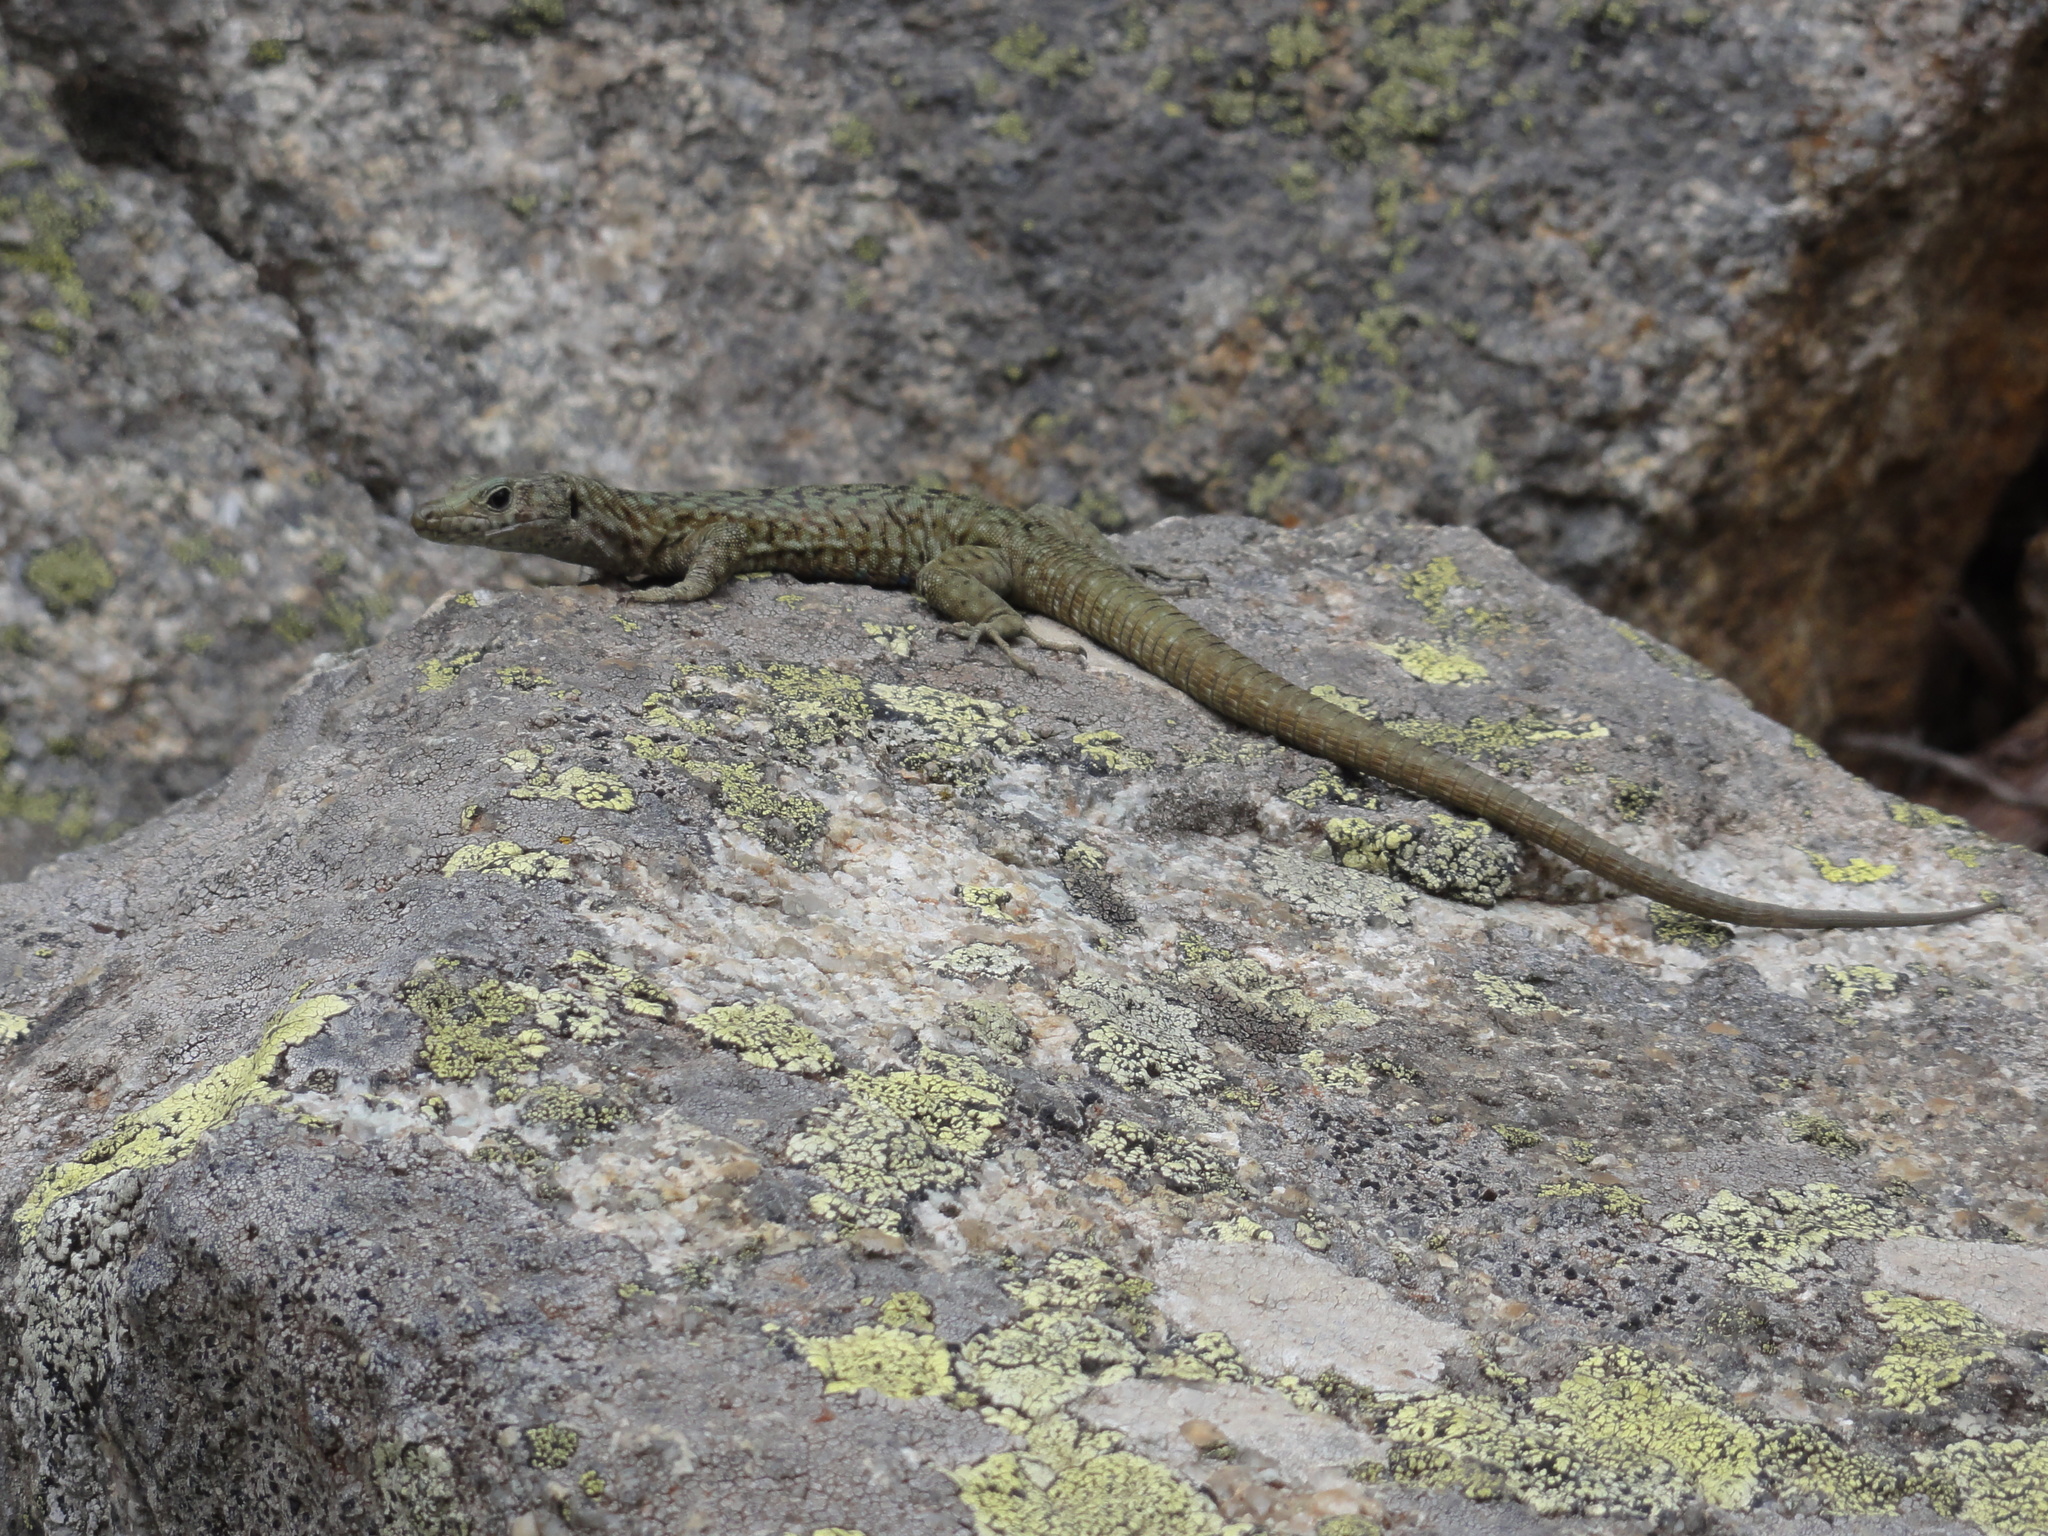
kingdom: Animalia
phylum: Chordata
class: Squamata
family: Lacertidae
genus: Archaeolacerta
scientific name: Archaeolacerta bedriagae
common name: Bedriaga's rock lizard
